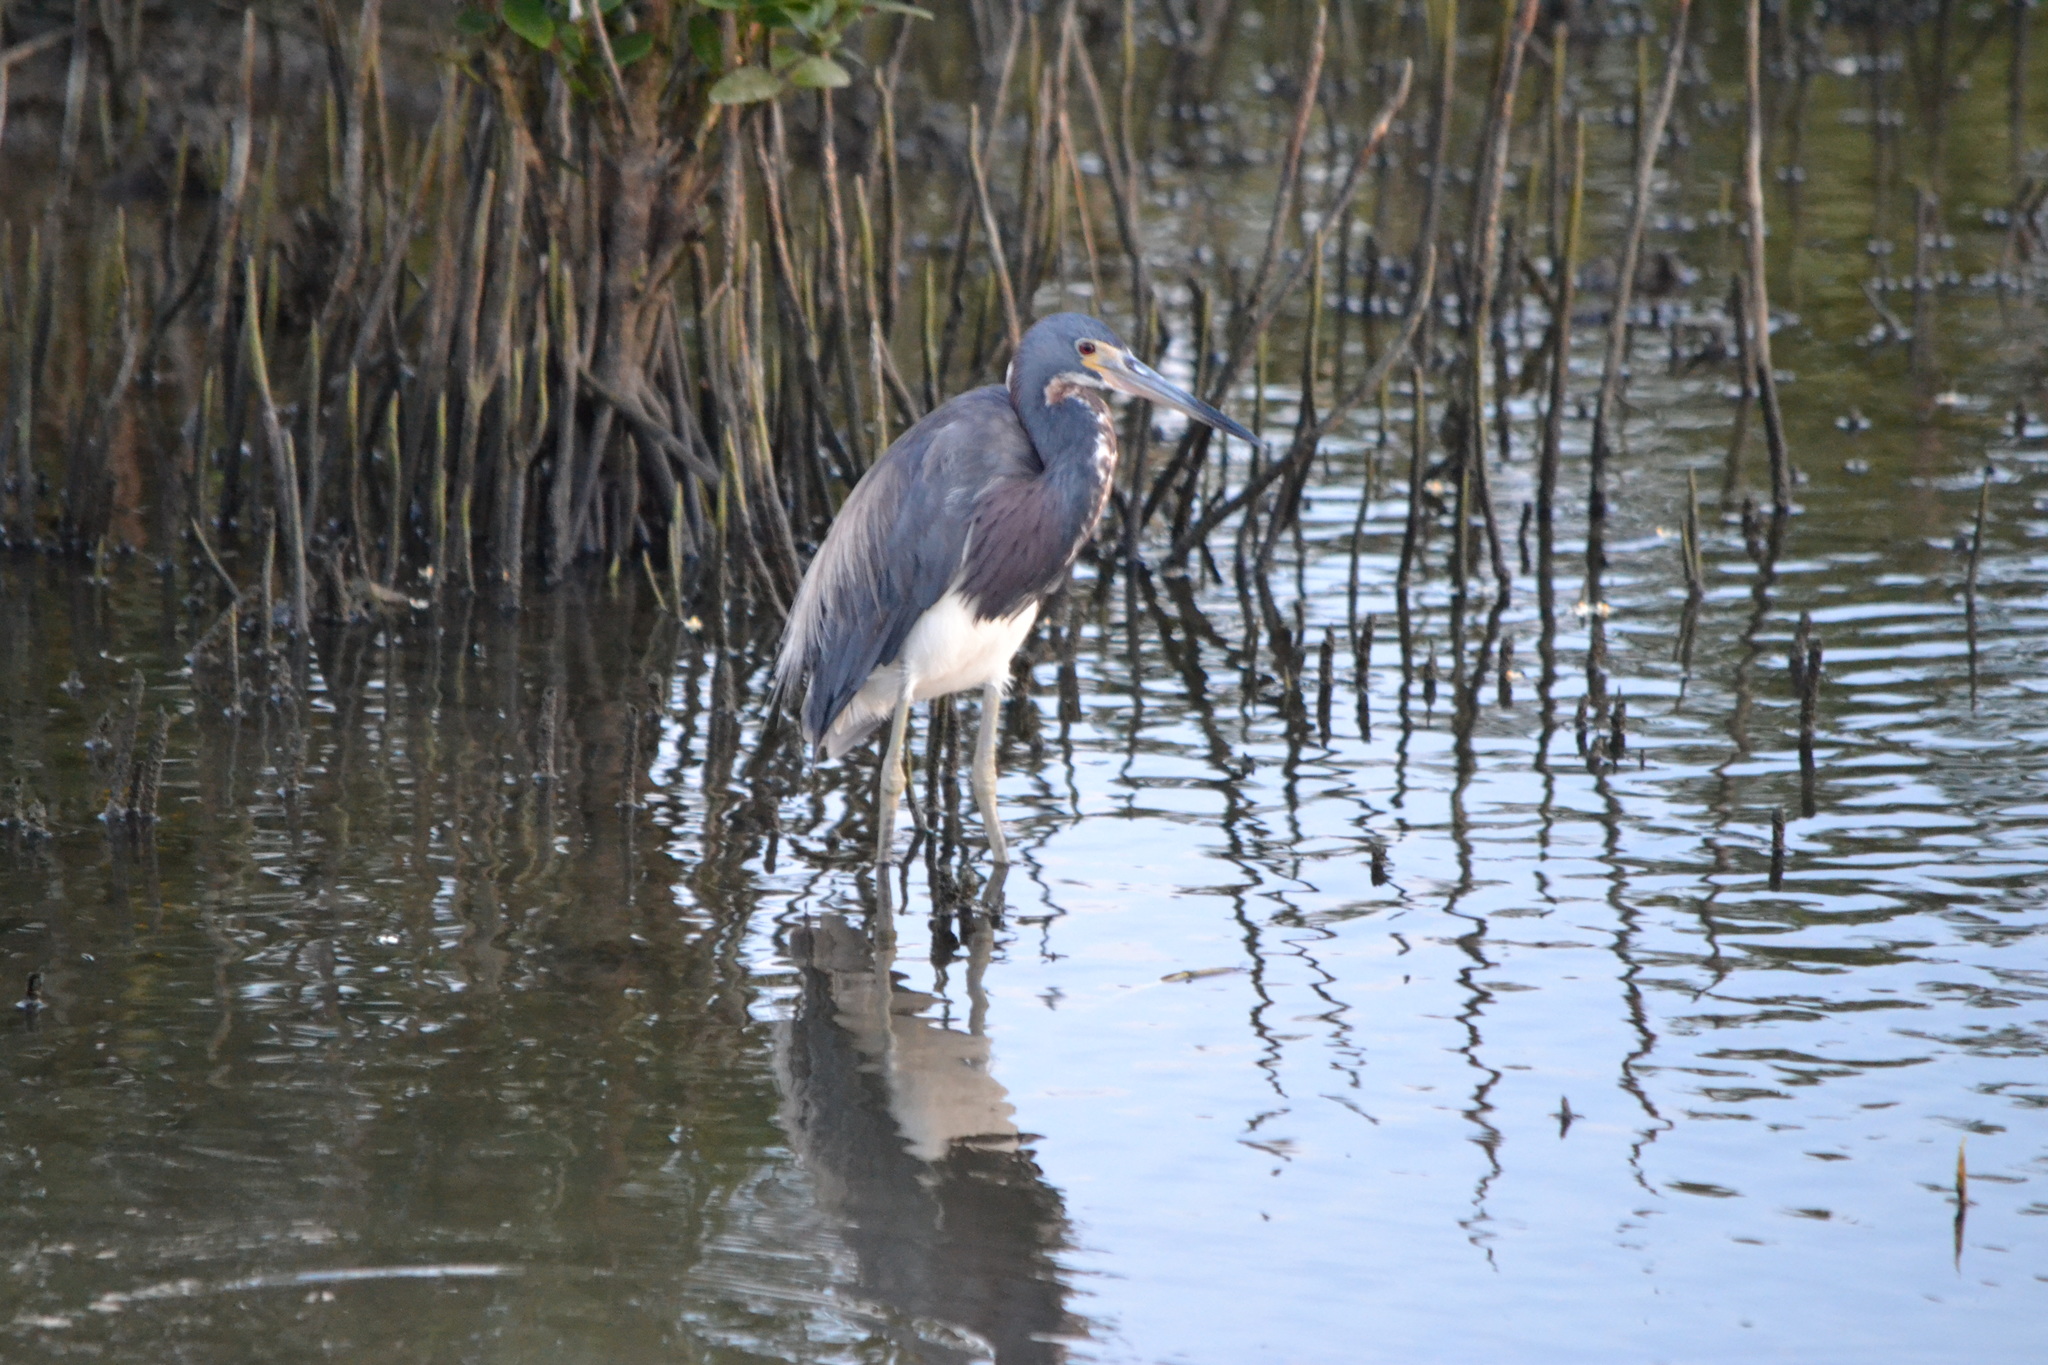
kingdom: Animalia
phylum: Chordata
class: Aves
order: Pelecaniformes
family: Ardeidae
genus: Egretta
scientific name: Egretta tricolor
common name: Tricolored heron
